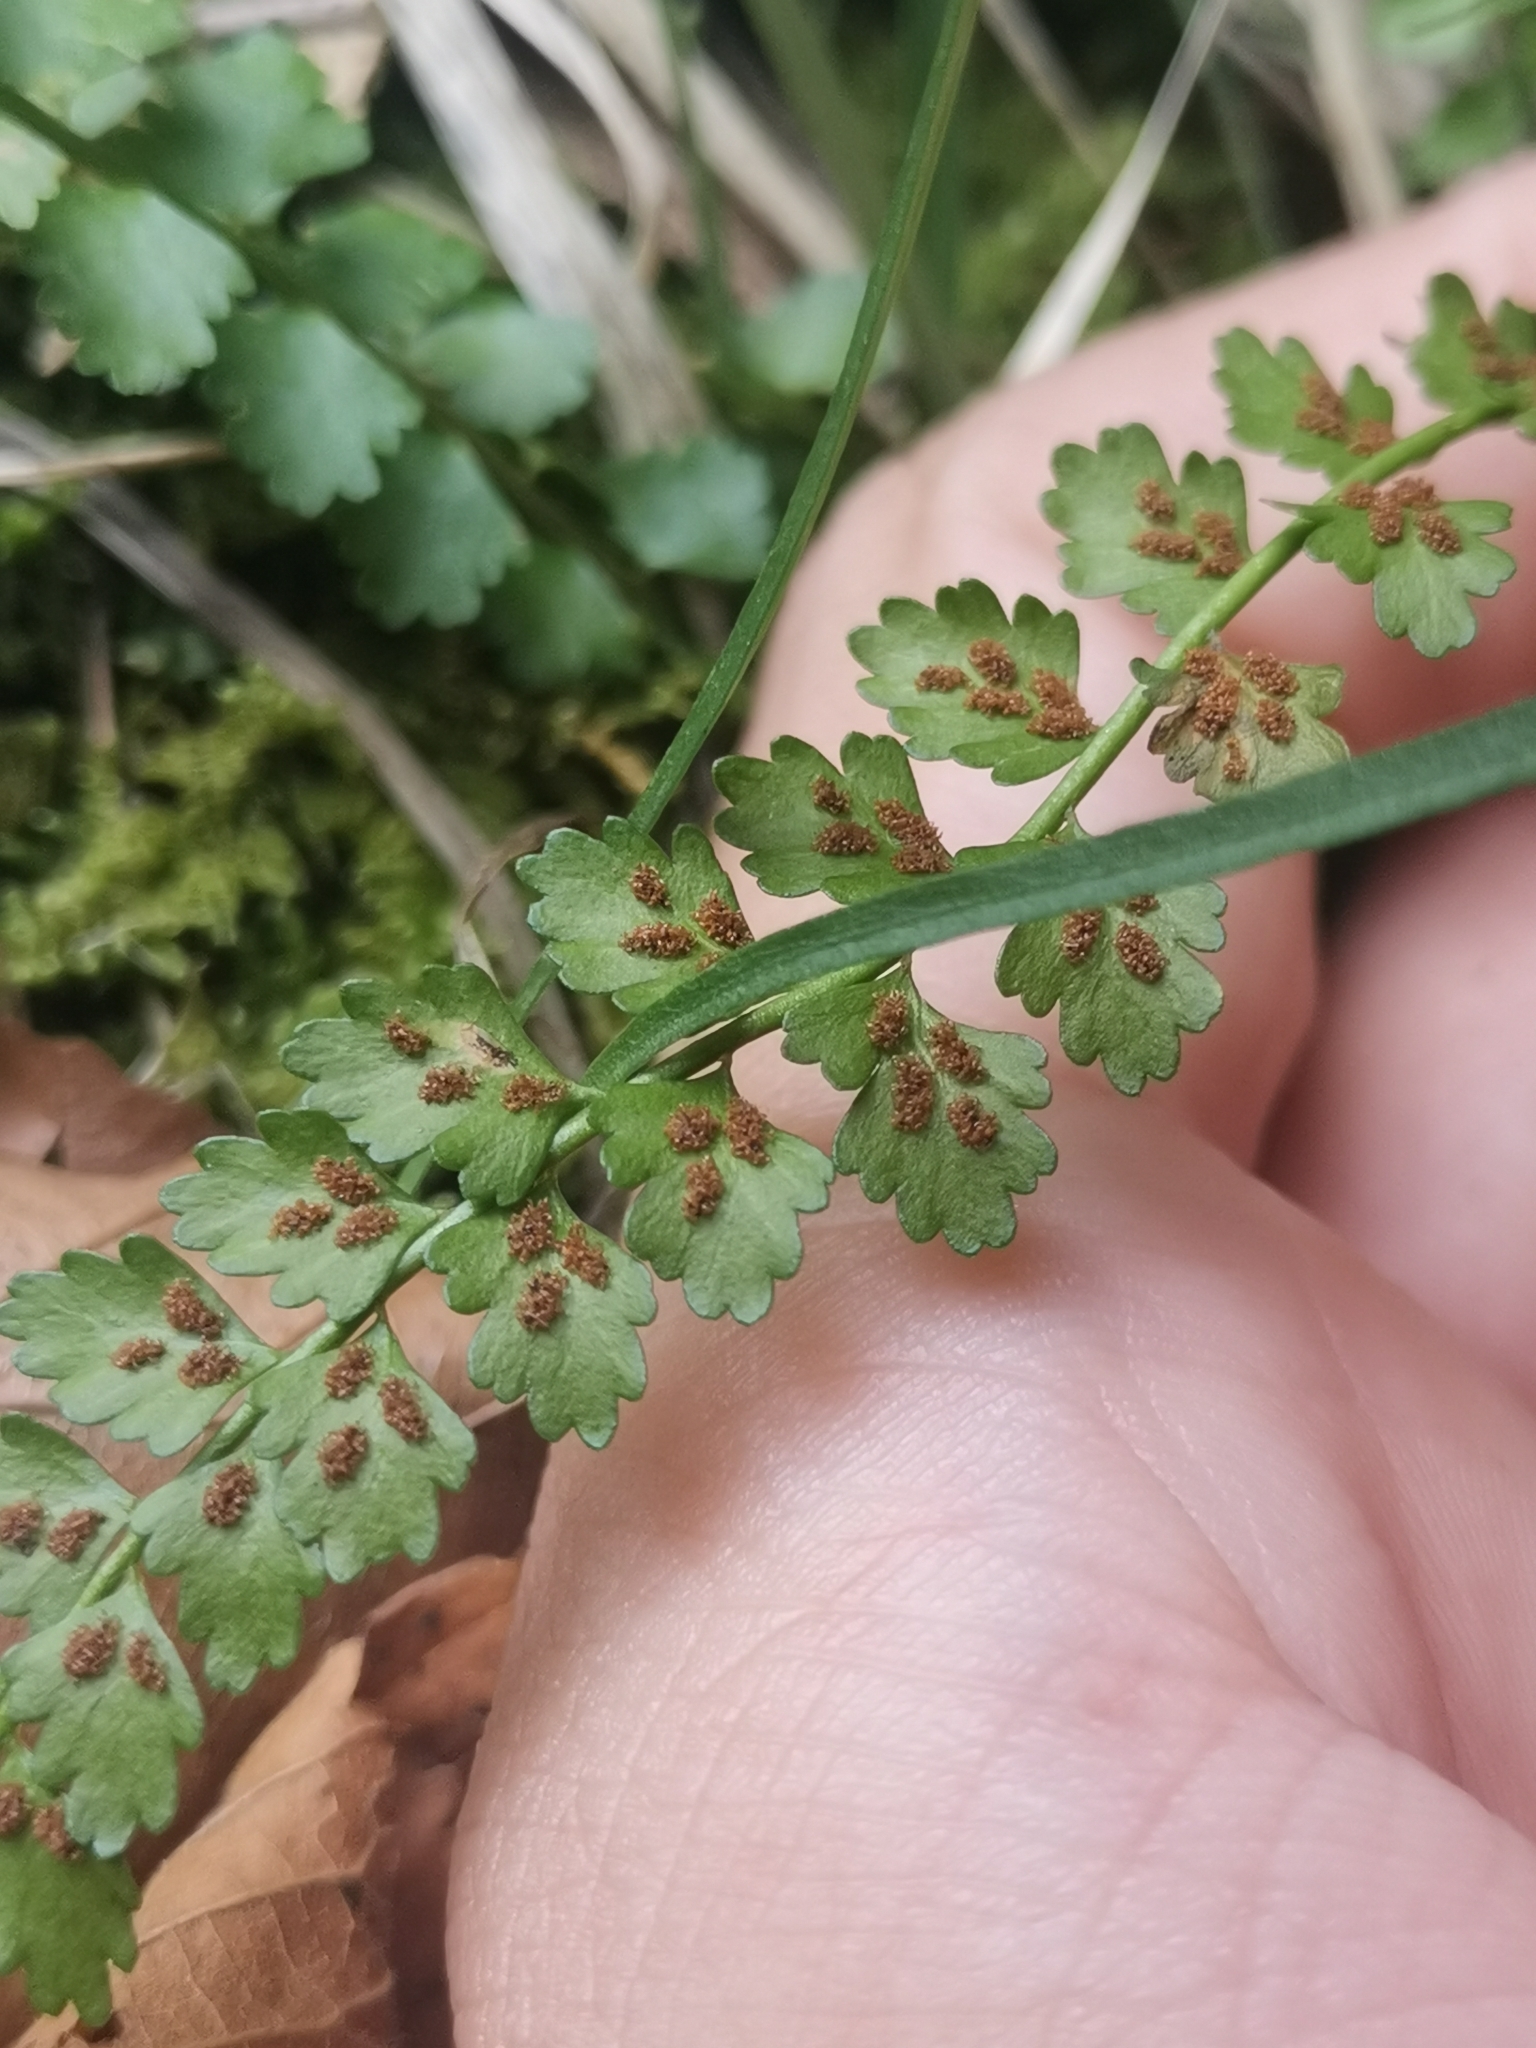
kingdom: Plantae
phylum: Tracheophyta
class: Polypodiopsida
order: Polypodiales
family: Aspleniaceae
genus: Asplenium
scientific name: Asplenium viride
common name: Green spleenwort
